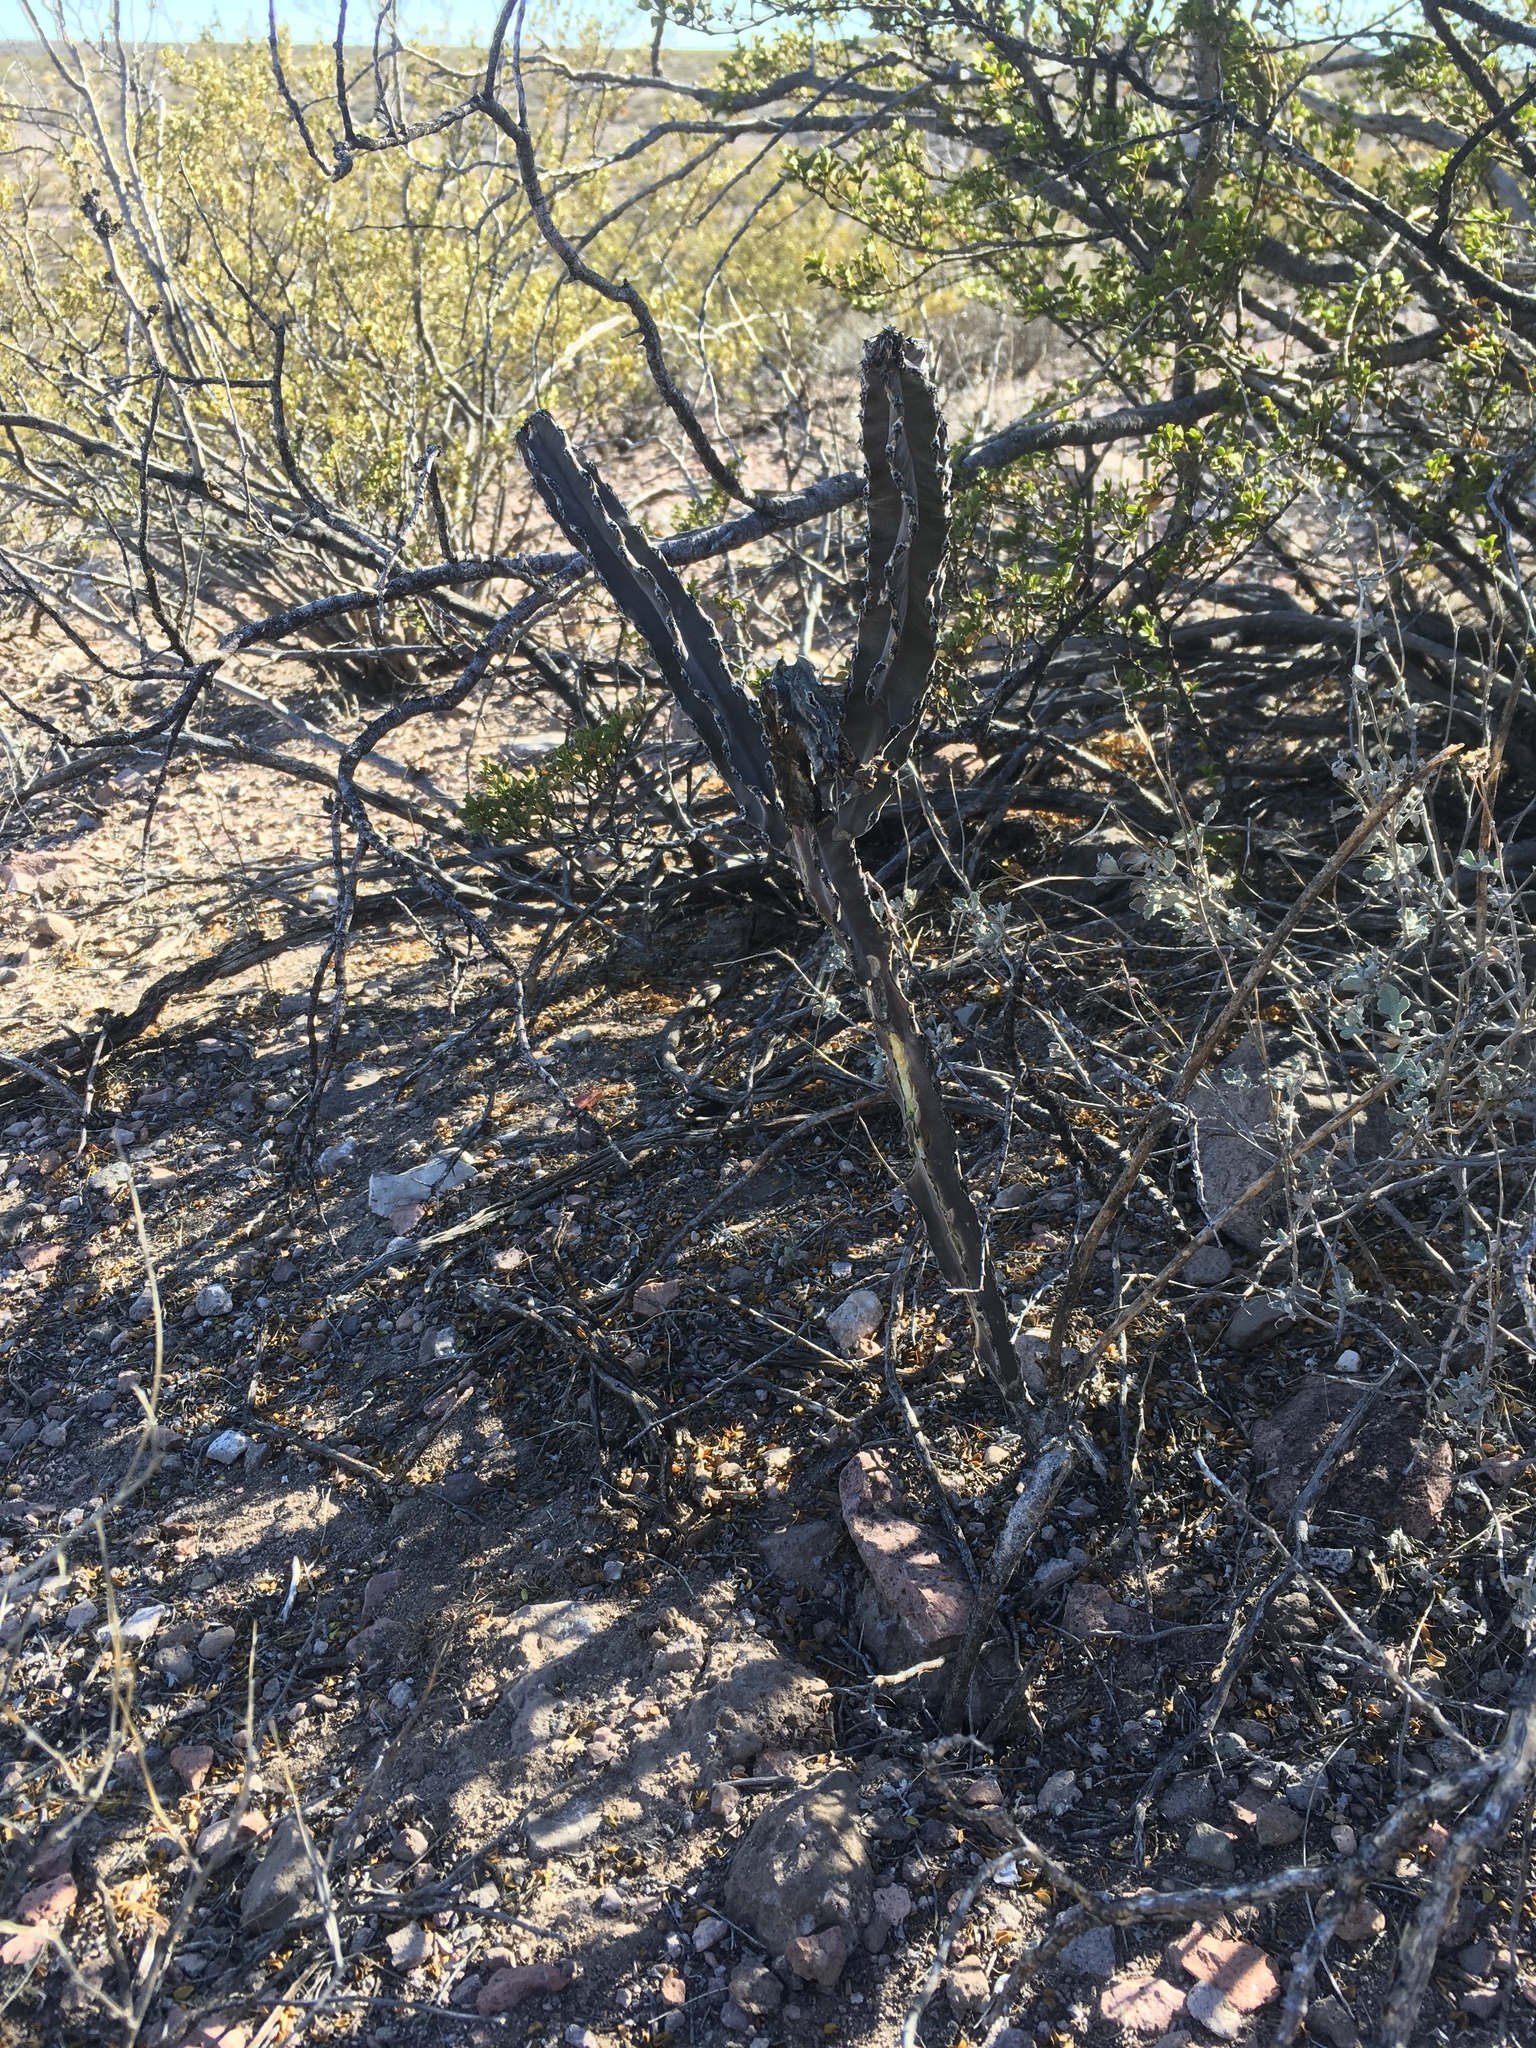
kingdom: Plantae
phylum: Tracheophyta
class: Magnoliopsida
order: Caryophyllales
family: Cactaceae
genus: Peniocereus
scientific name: Peniocereus greggii
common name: Desert night-blooming cereus
